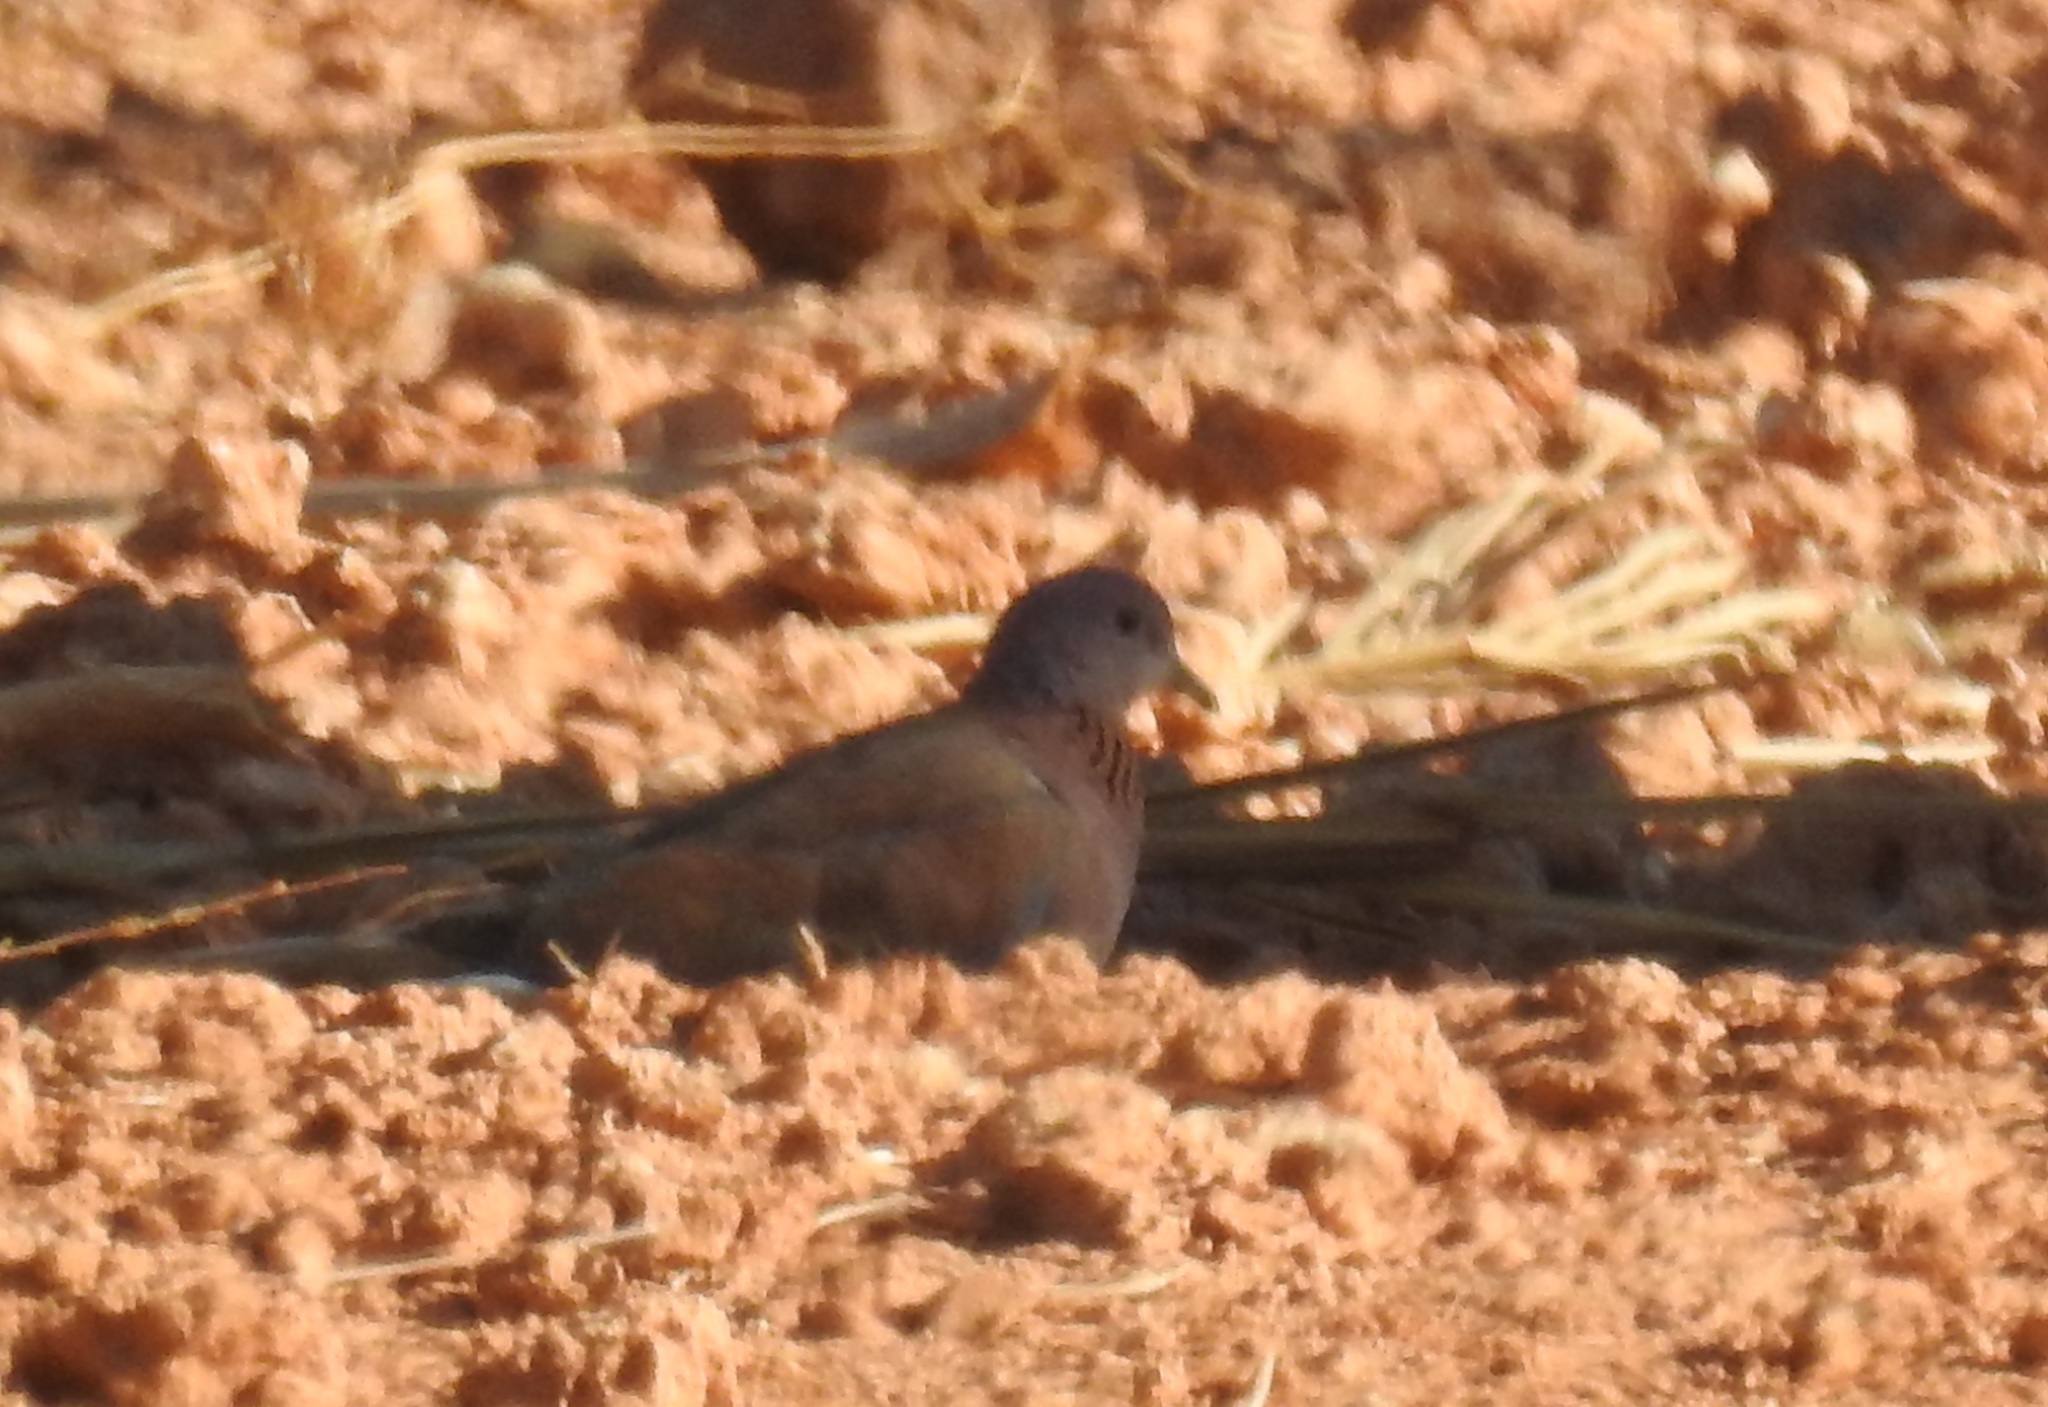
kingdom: Animalia
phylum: Chordata
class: Aves
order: Columbiformes
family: Columbidae
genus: Spilopelia
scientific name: Spilopelia senegalensis
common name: Laughing dove
